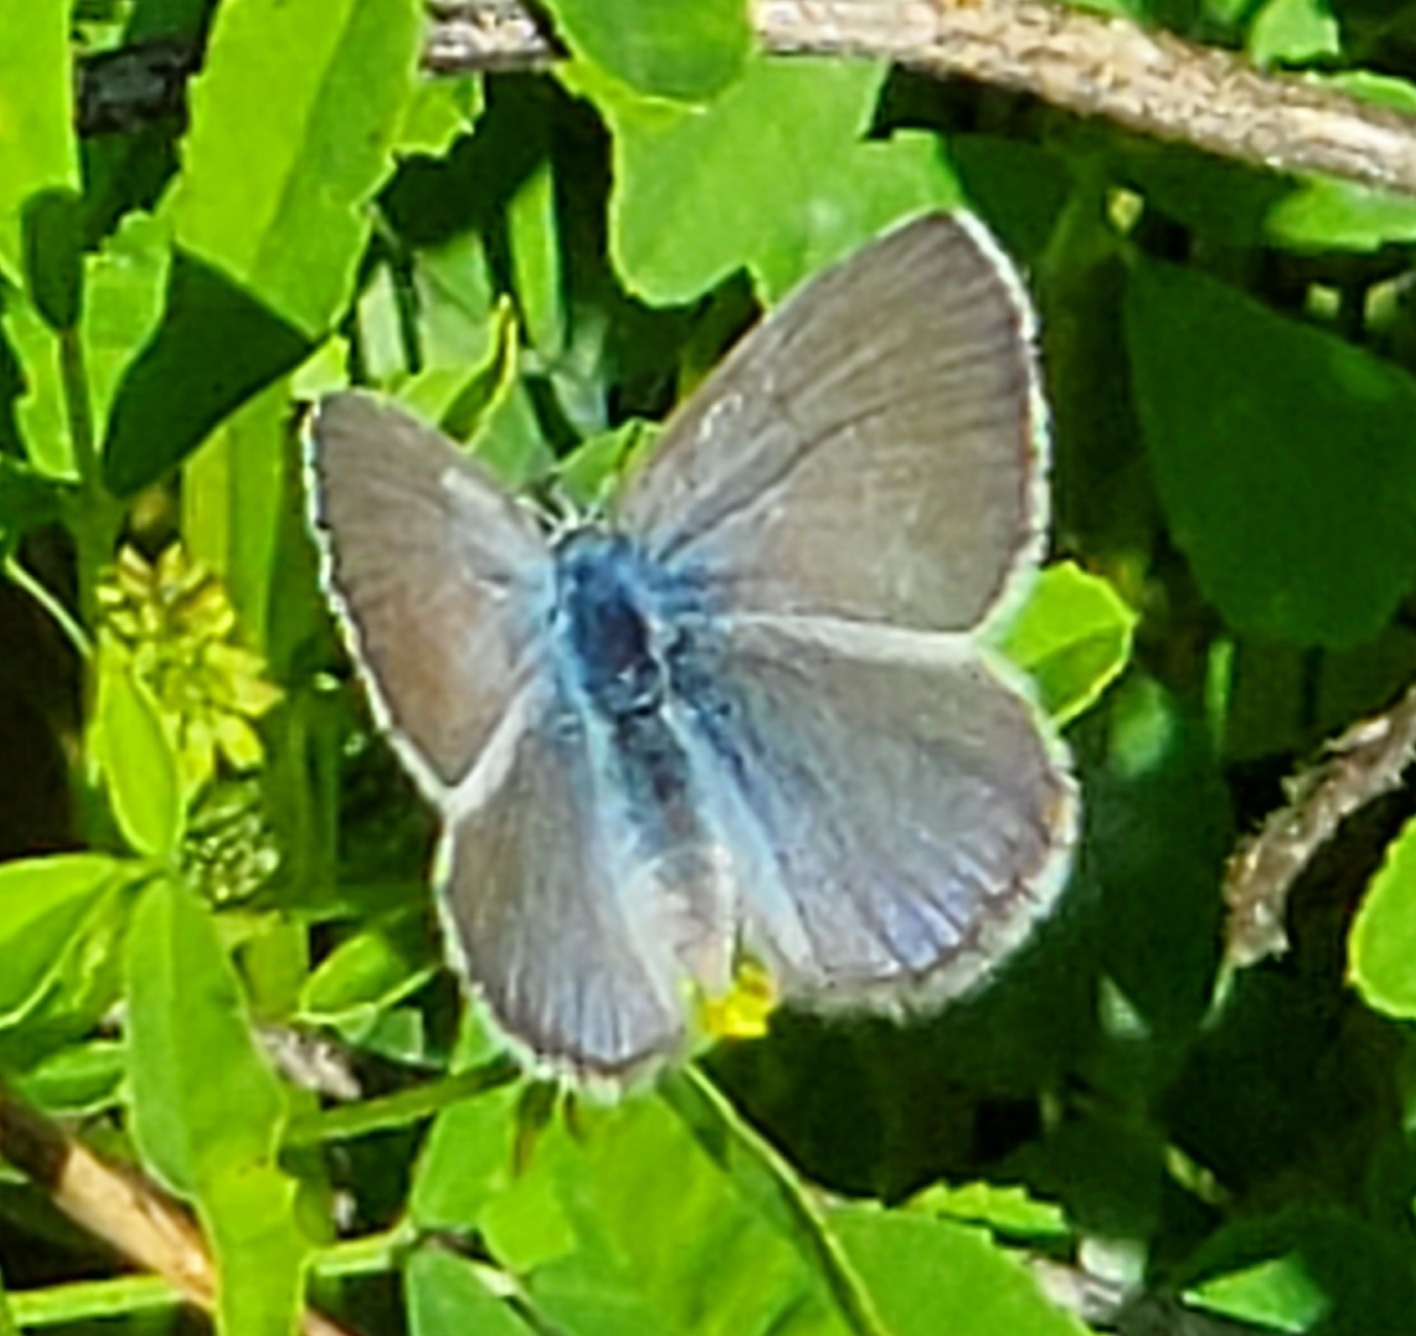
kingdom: Animalia
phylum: Arthropoda
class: Insecta
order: Lepidoptera
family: Lycaenidae
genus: Glaucopsyche
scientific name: Glaucopsyche lygdamus
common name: Silvery blue
